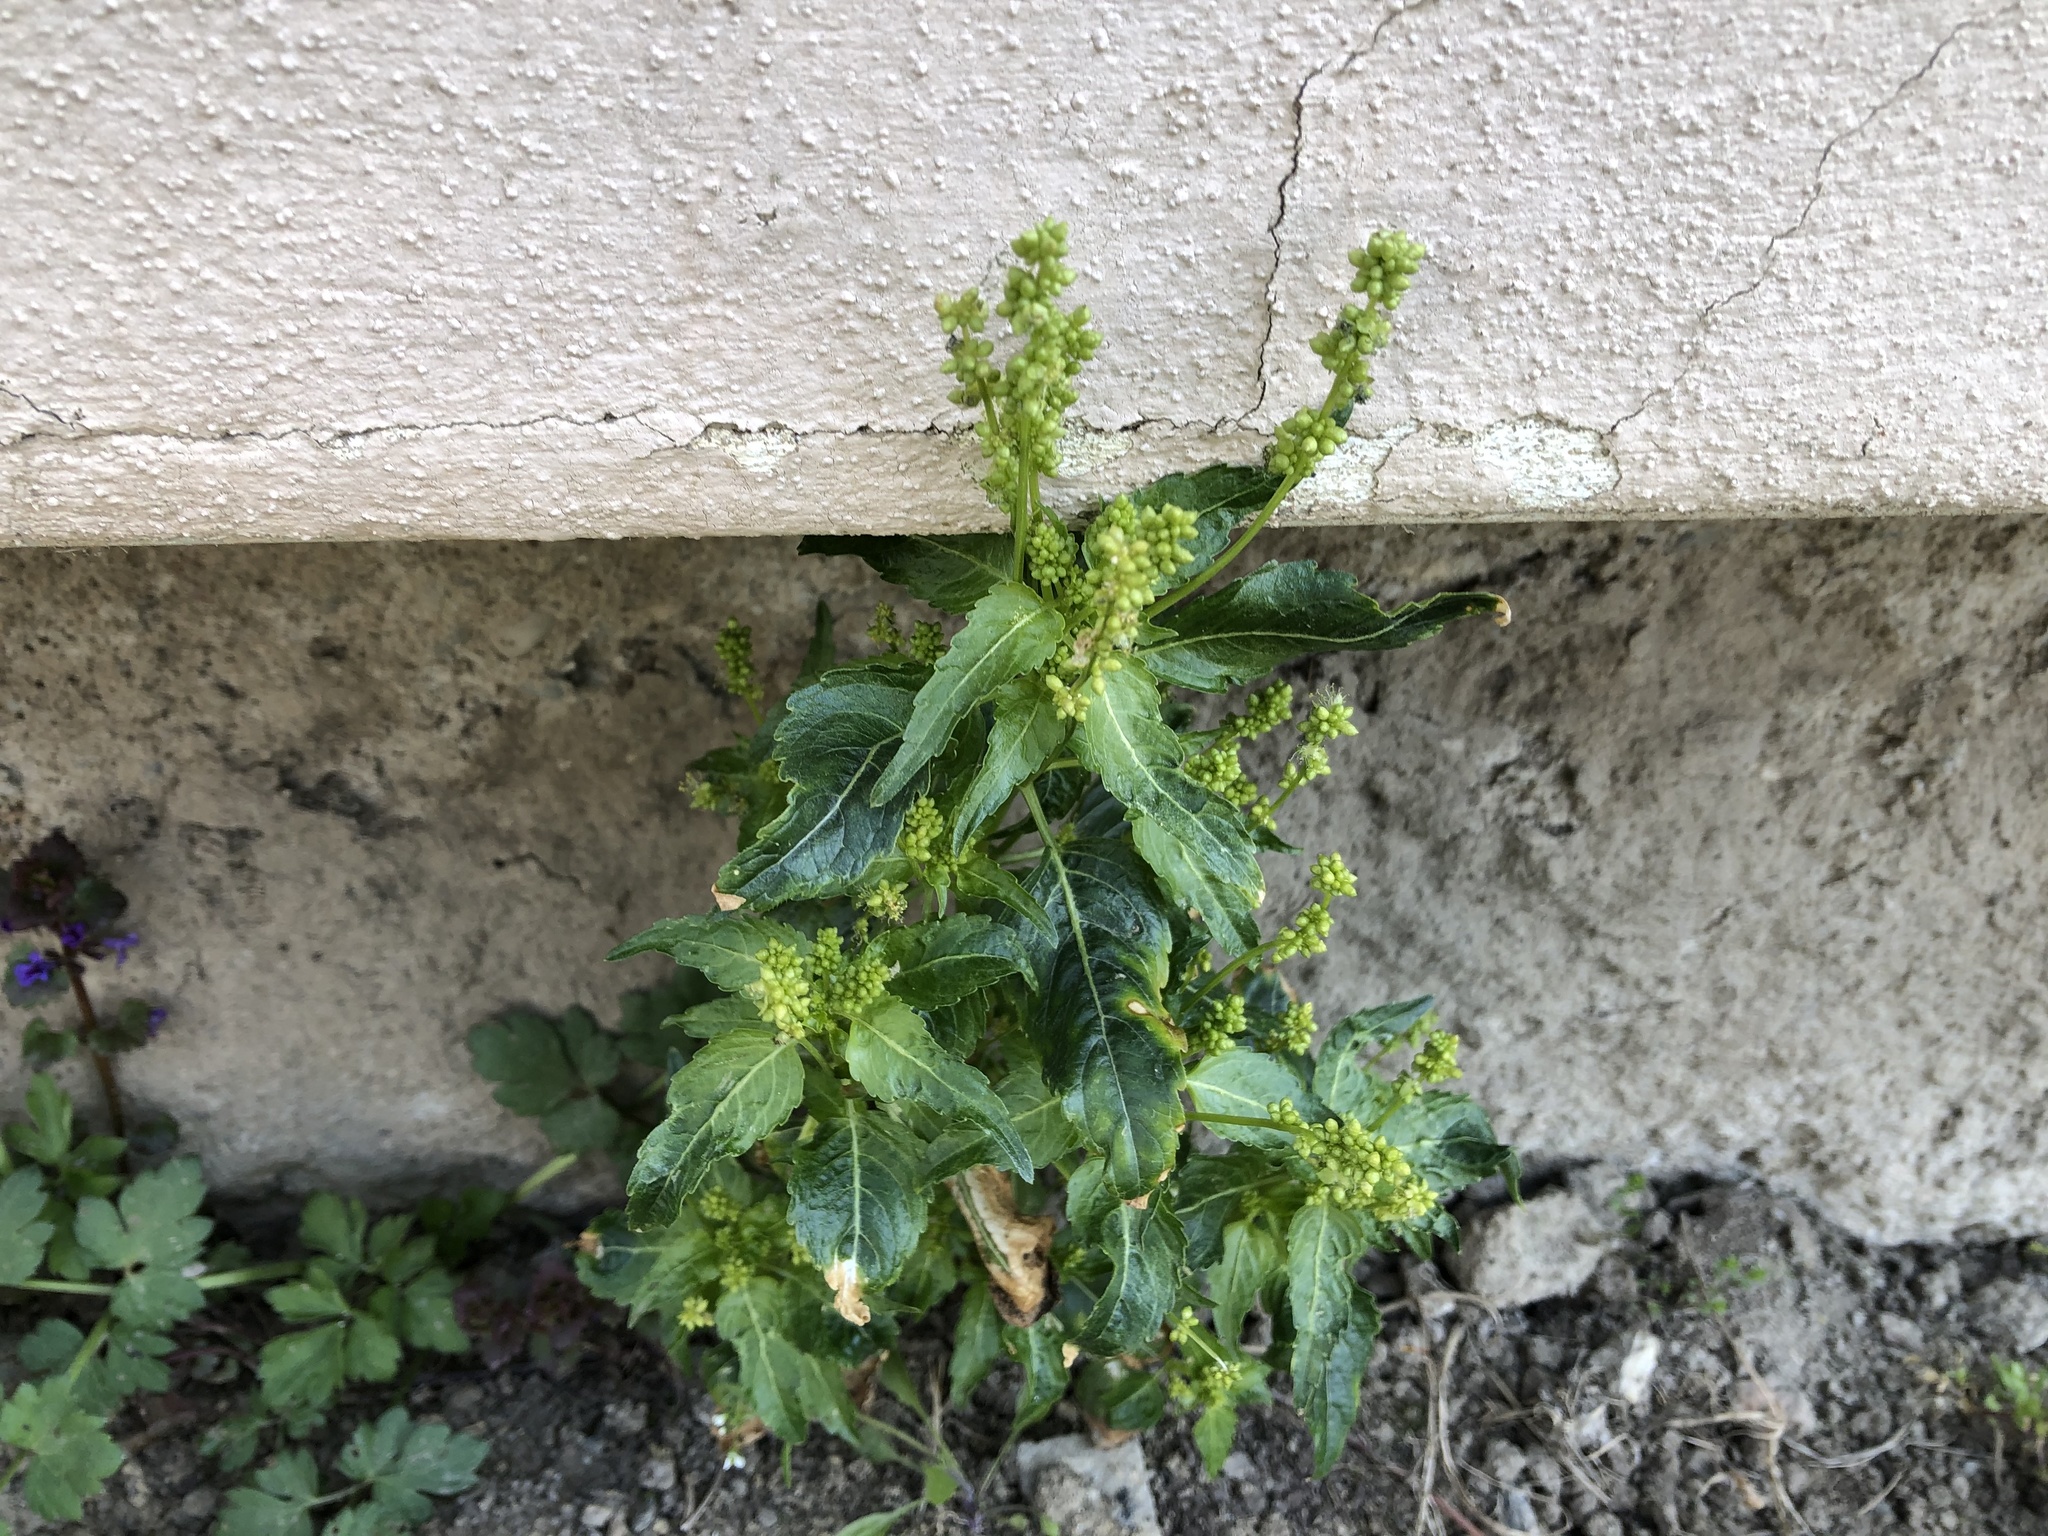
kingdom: Plantae
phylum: Tracheophyta
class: Magnoliopsida
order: Malpighiales
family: Euphorbiaceae
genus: Mercurialis
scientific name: Mercurialis annua
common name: Annual mercury
